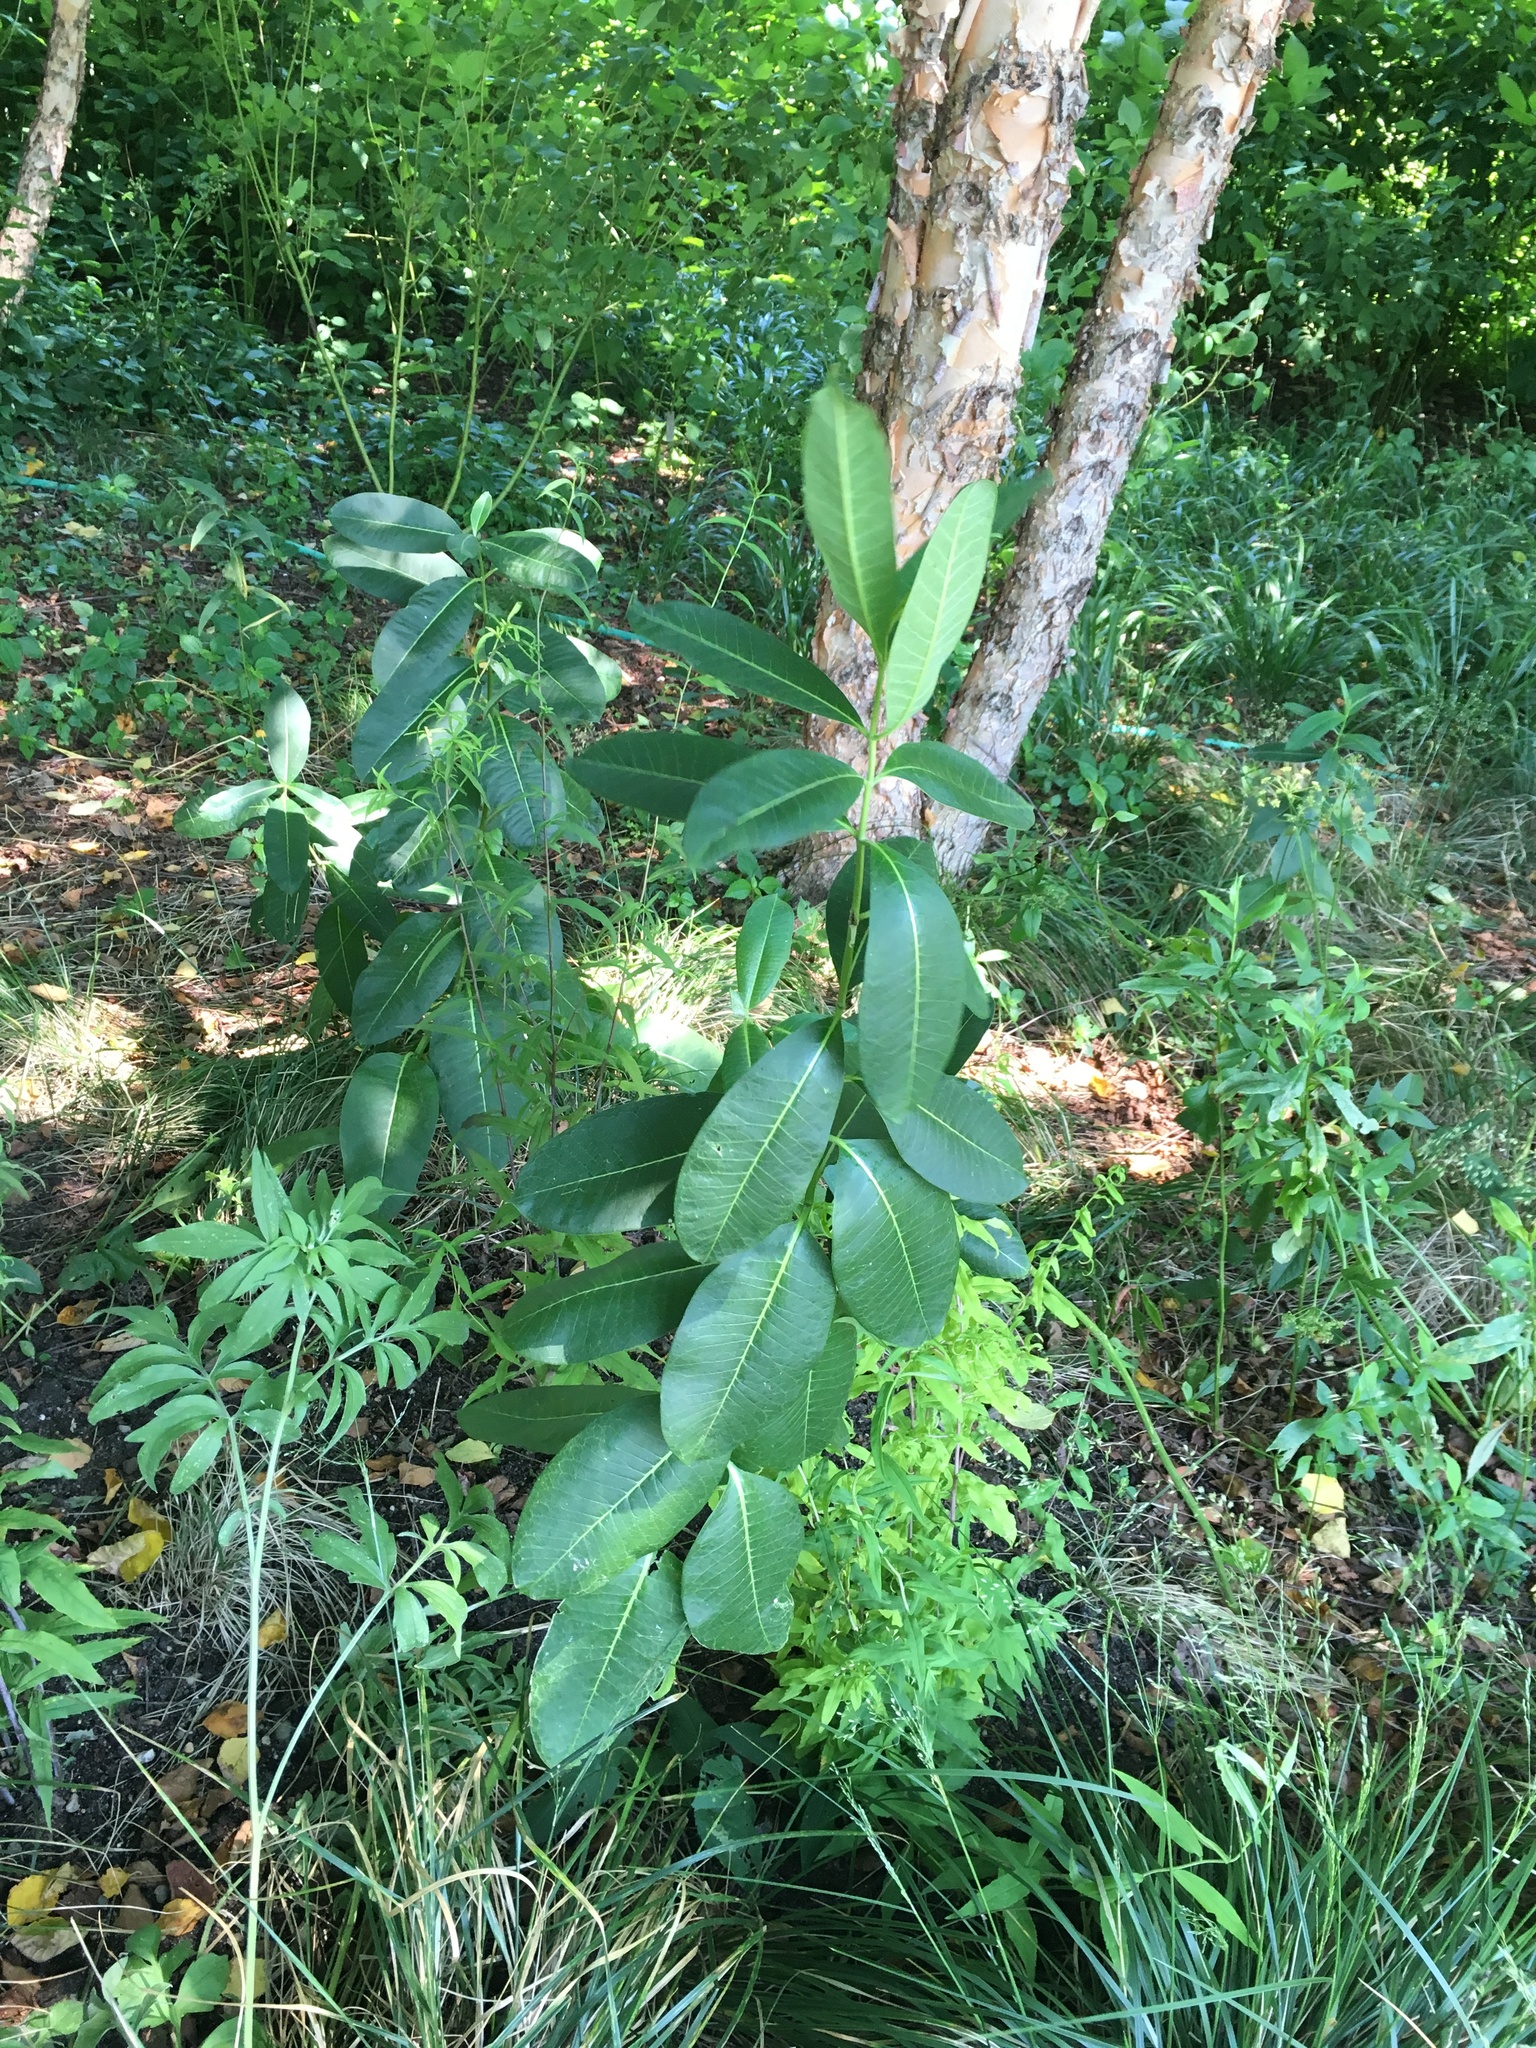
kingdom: Plantae
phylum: Tracheophyta
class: Magnoliopsida
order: Gentianales
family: Apocynaceae
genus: Asclepias
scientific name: Asclepias syriaca
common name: Common milkweed
